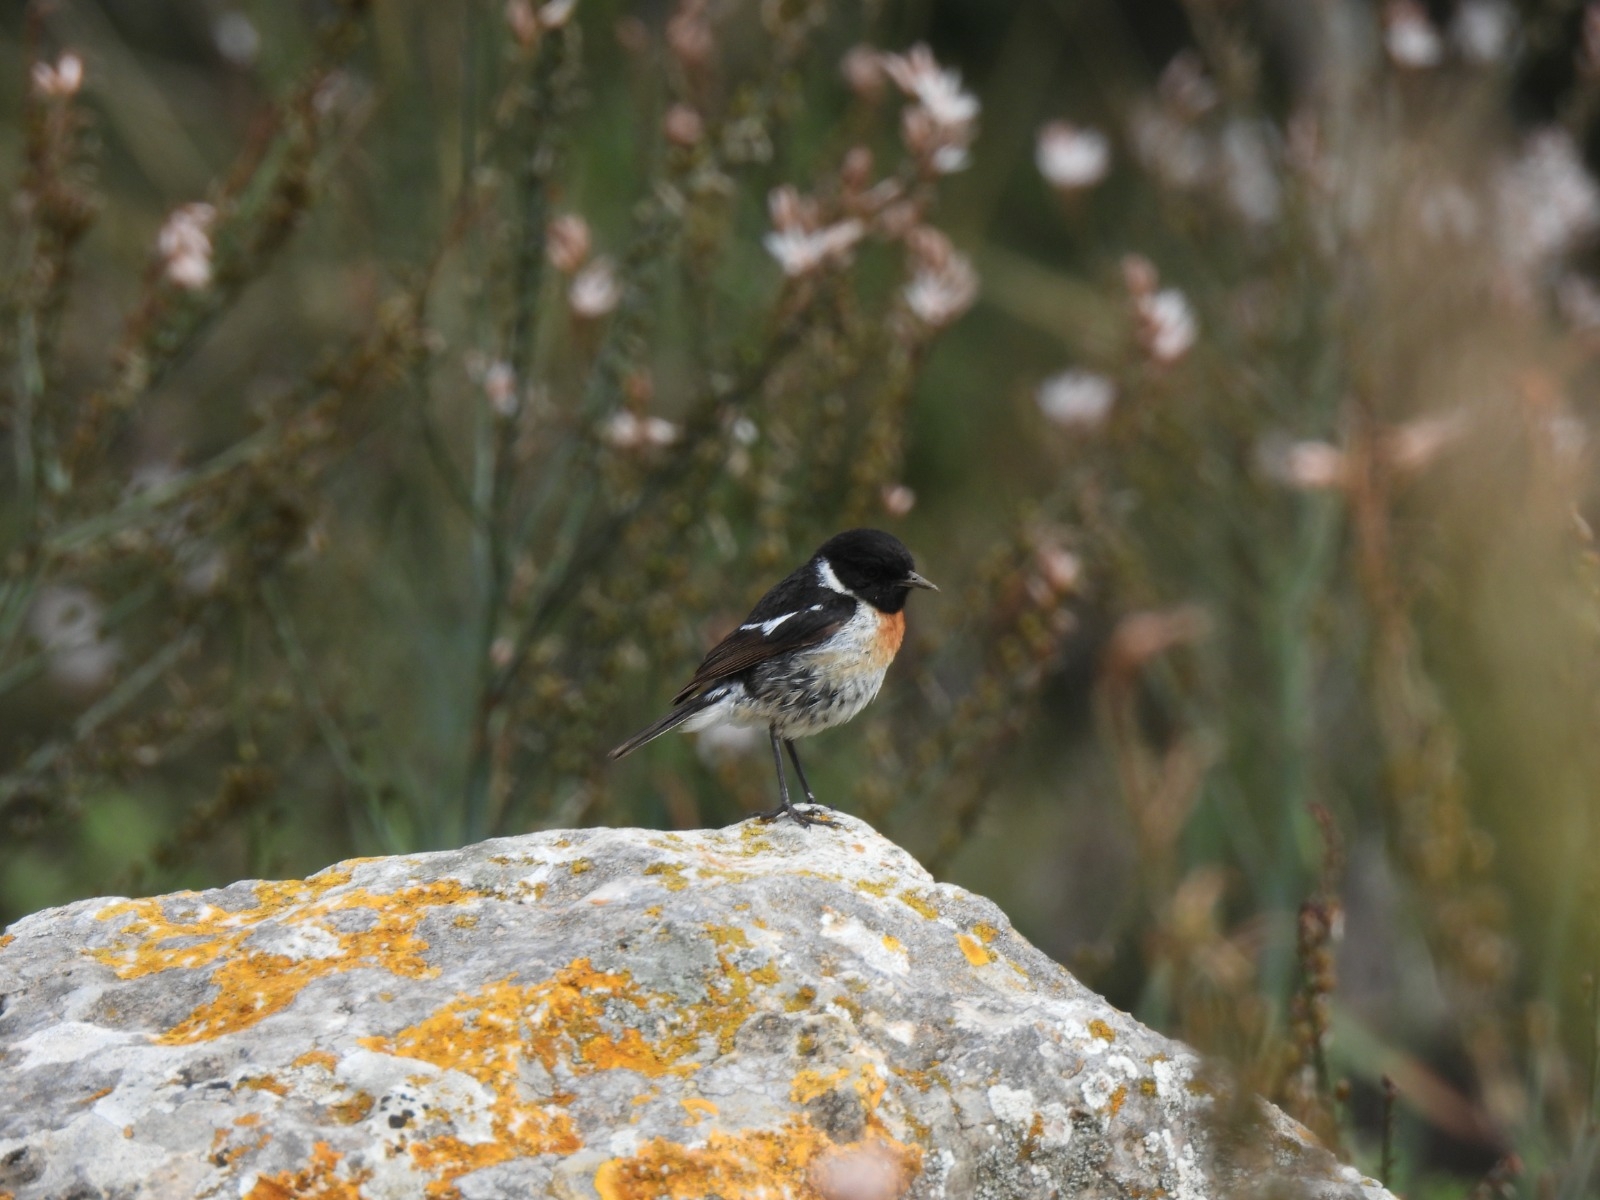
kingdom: Animalia
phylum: Chordata
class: Aves
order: Passeriformes
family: Muscicapidae
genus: Saxicola
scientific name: Saxicola rubicola
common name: European stonechat
